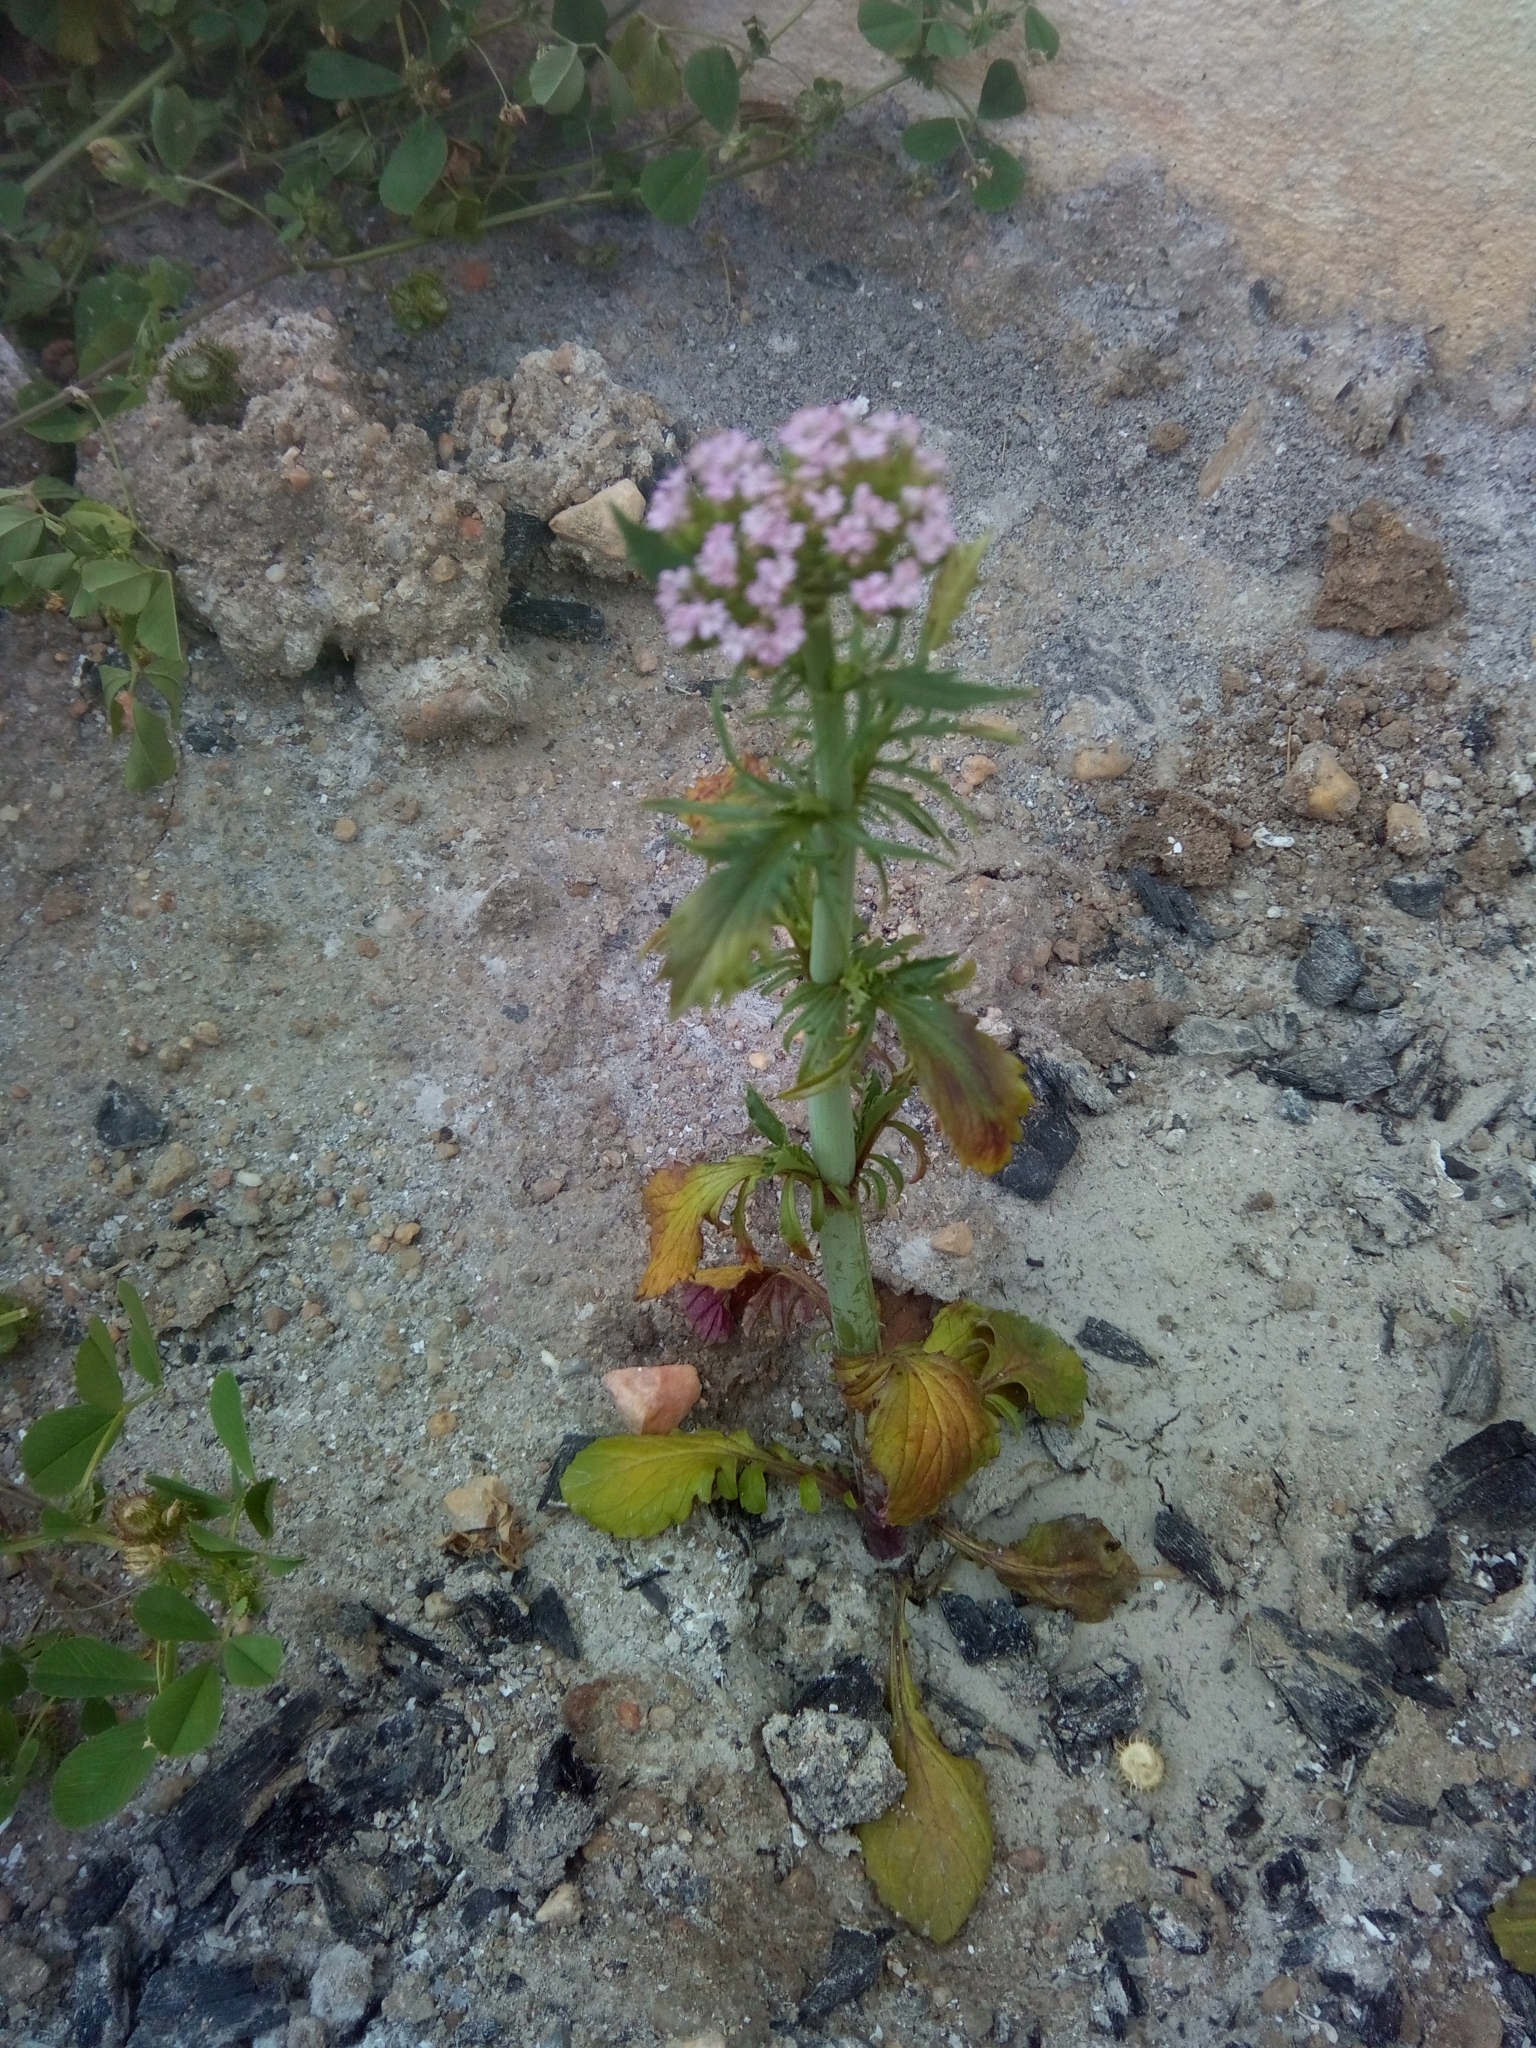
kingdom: Plantae
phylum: Tracheophyta
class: Magnoliopsida
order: Dipsacales
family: Caprifoliaceae
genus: Centranthus
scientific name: Centranthus calcitrapae
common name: Annual valerian
